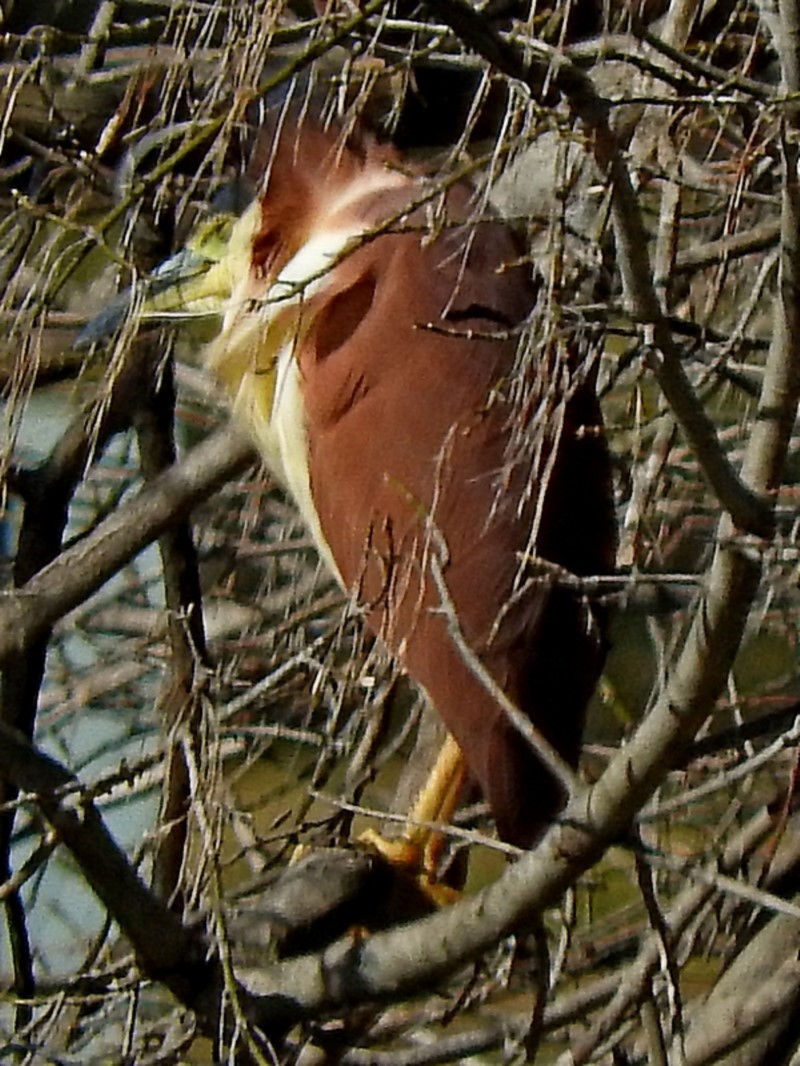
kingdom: Animalia
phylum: Chordata
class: Aves
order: Pelecaniformes
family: Ardeidae
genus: Nycticorax
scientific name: Nycticorax caledonicus
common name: Rufous night-heron
